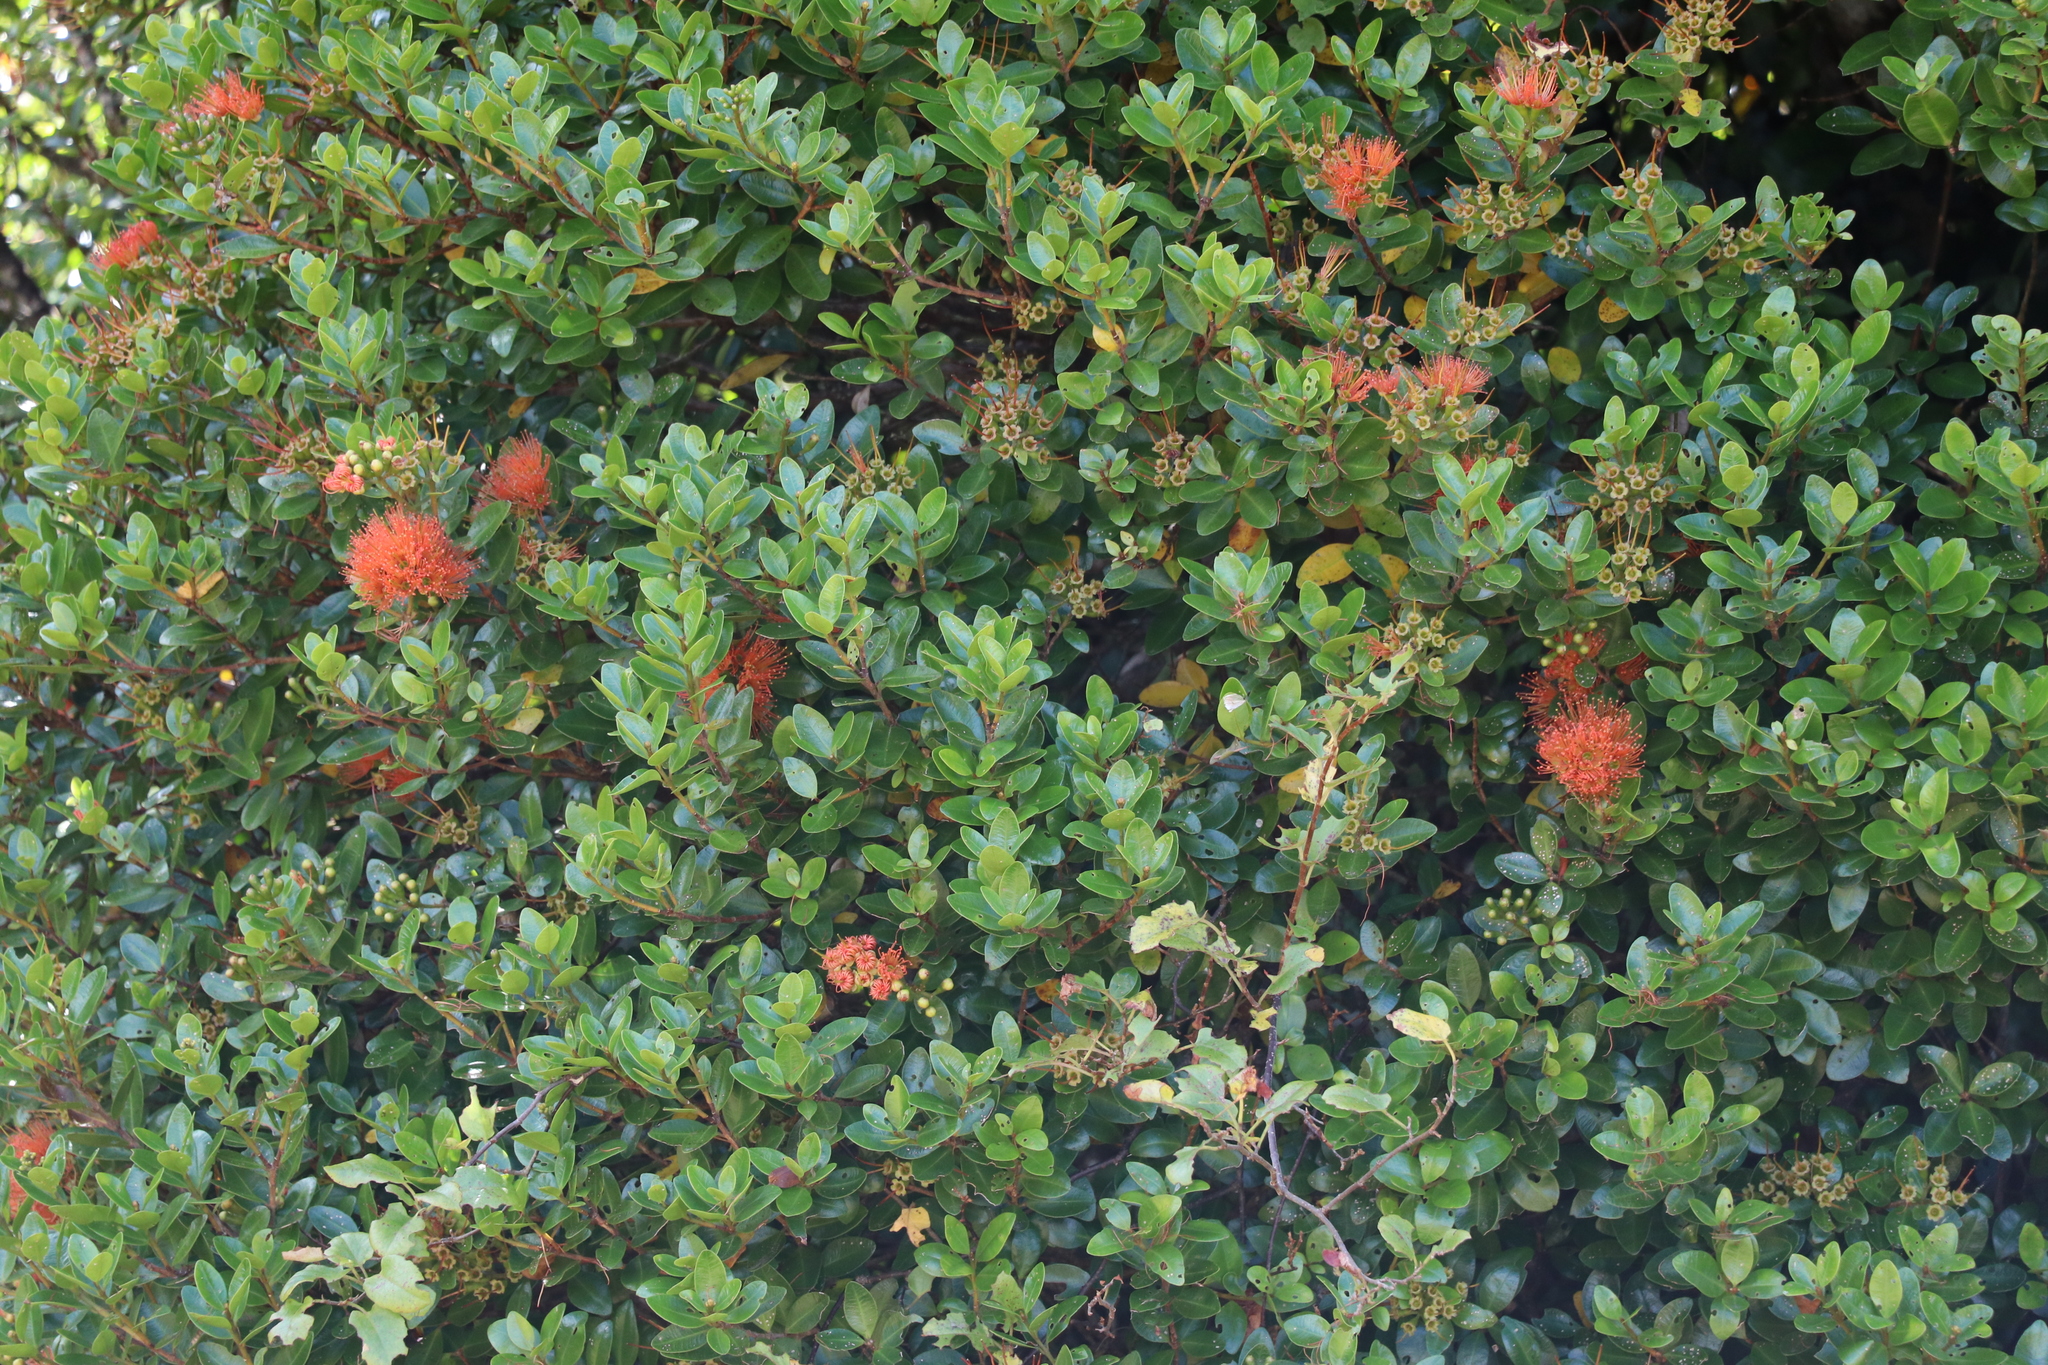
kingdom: Plantae
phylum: Tracheophyta
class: Magnoliopsida
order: Myrtales
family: Myrtaceae
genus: Metrosideros
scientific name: Metrosideros fulgens
